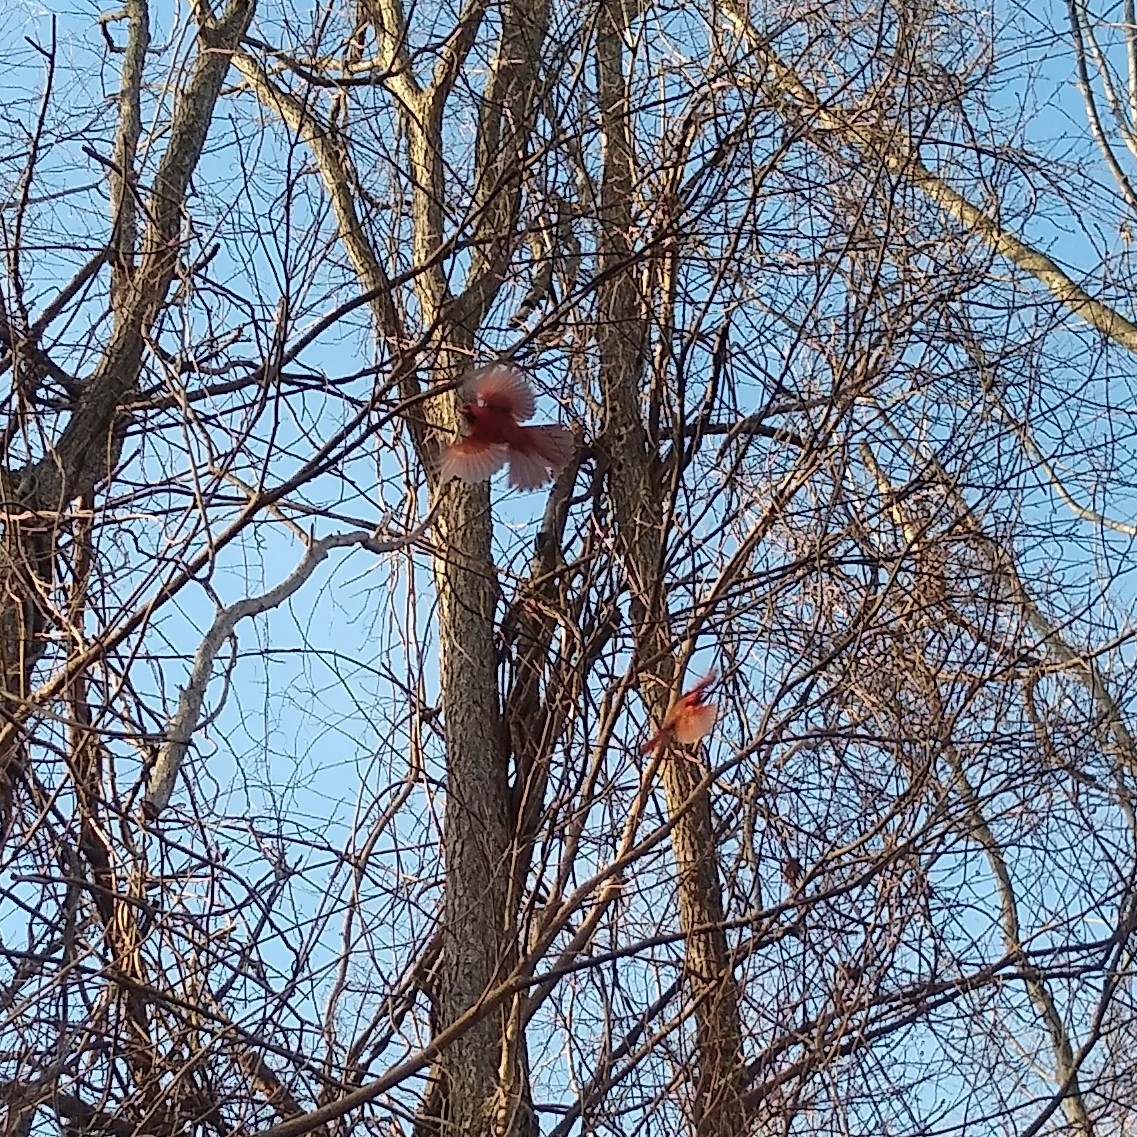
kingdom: Animalia
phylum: Chordata
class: Aves
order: Passeriformes
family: Cardinalidae
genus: Cardinalis
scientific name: Cardinalis cardinalis
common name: Northern cardinal
